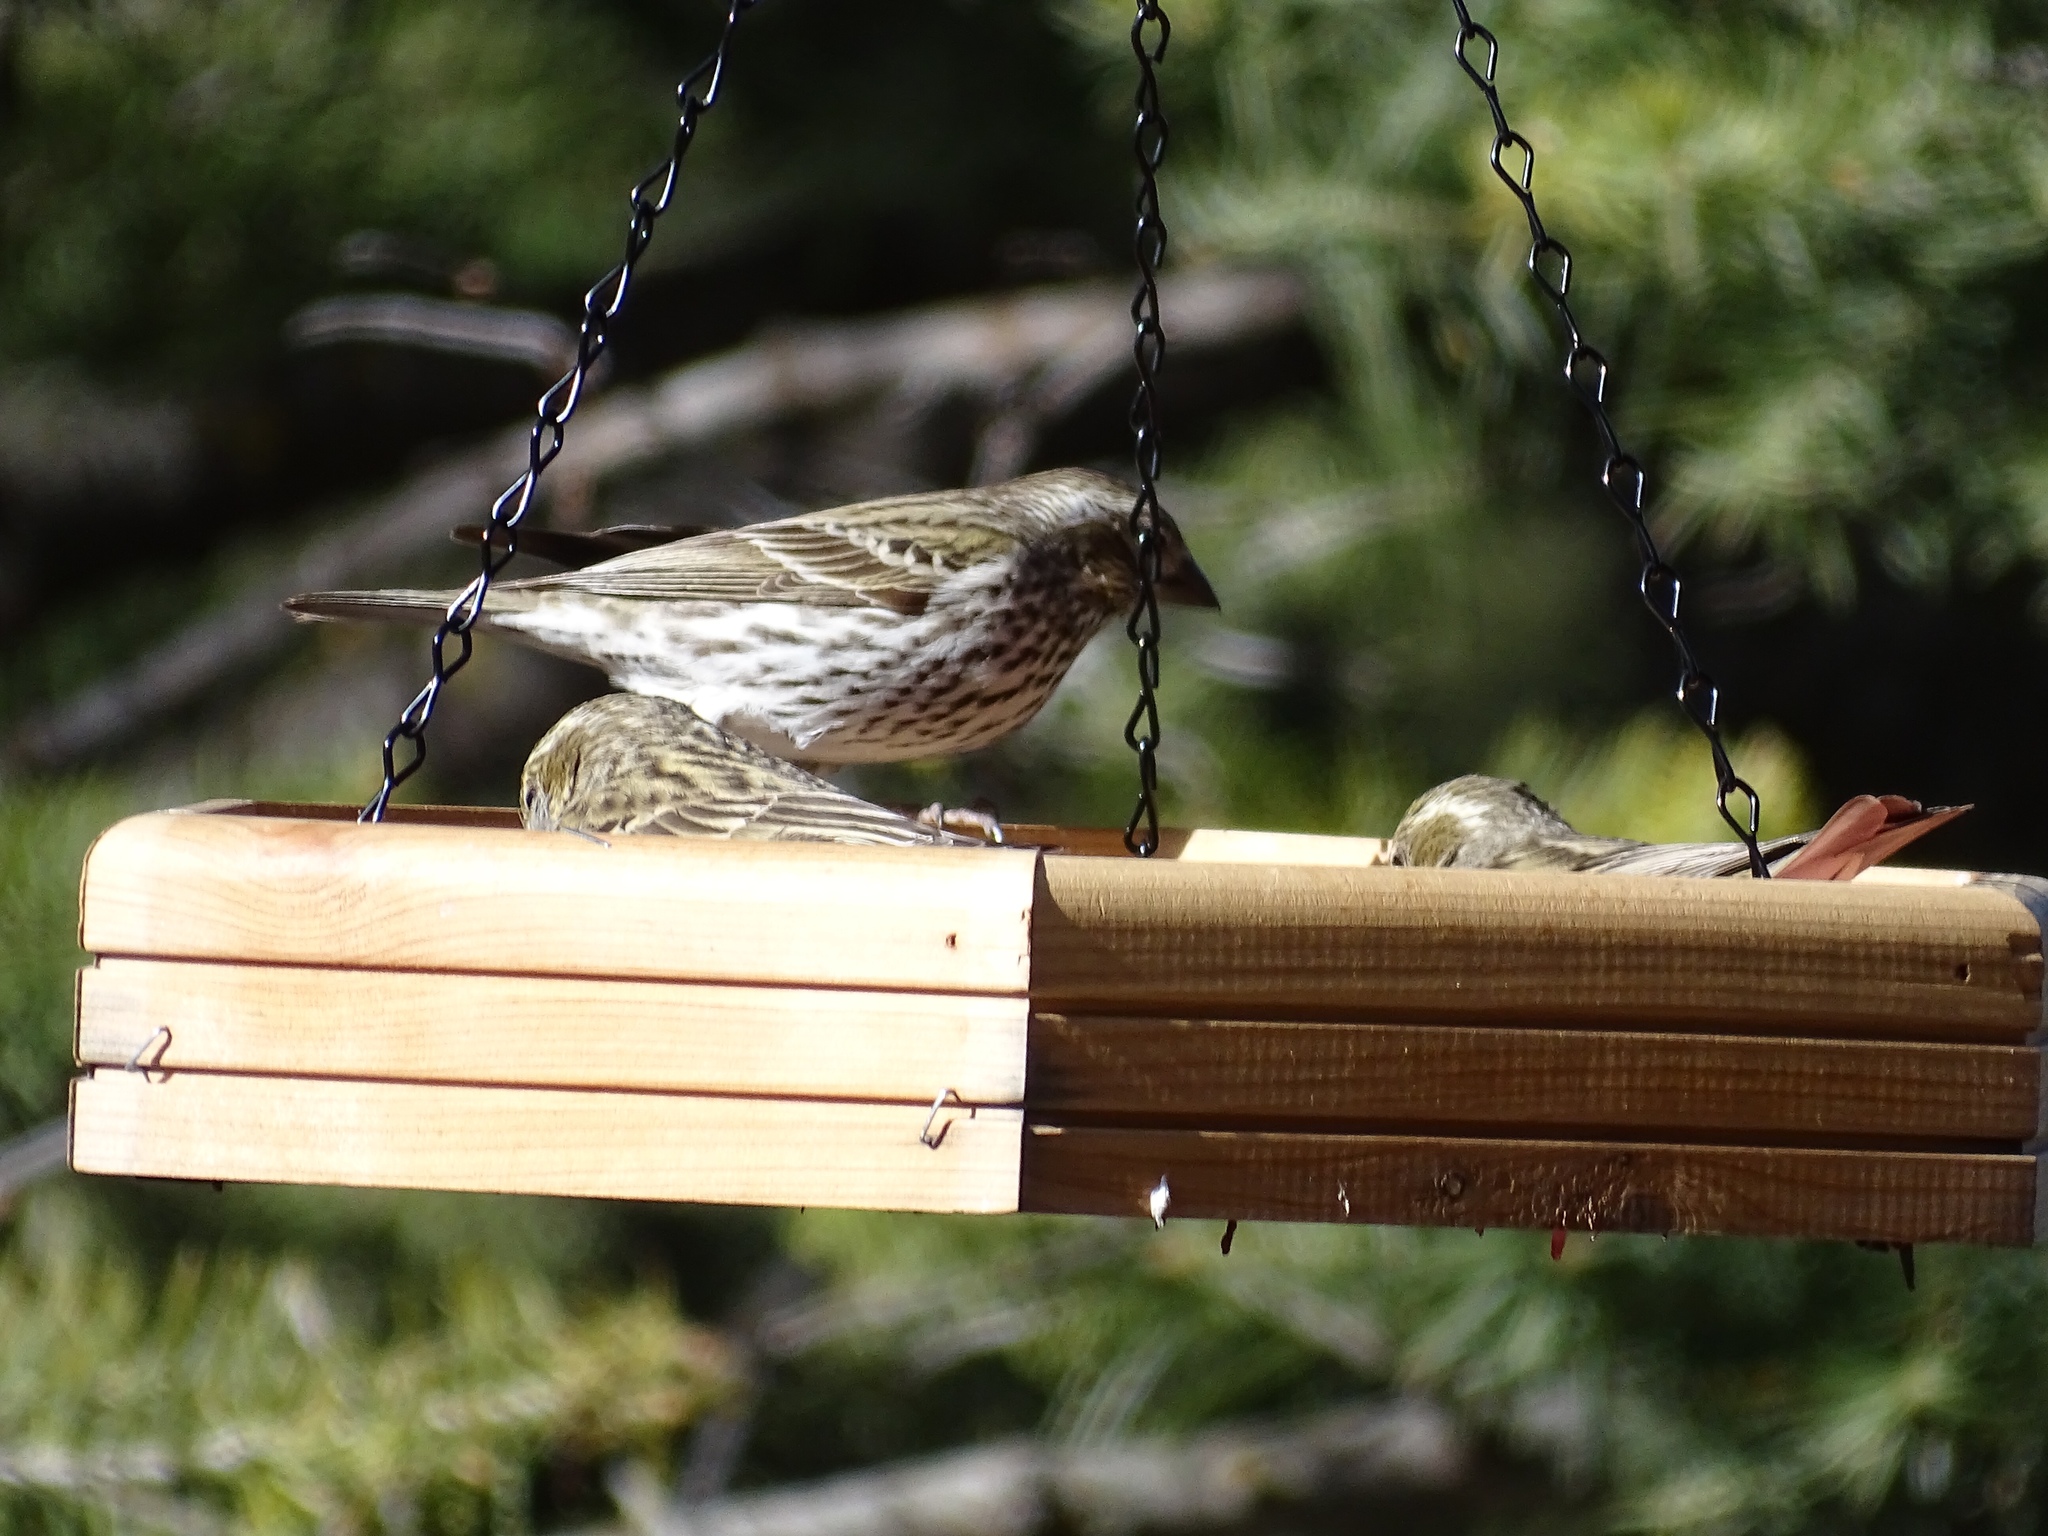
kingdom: Animalia
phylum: Chordata
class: Aves
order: Passeriformes
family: Fringillidae
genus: Haemorhous
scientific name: Haemorhous cassinii
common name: Cassin's finch
